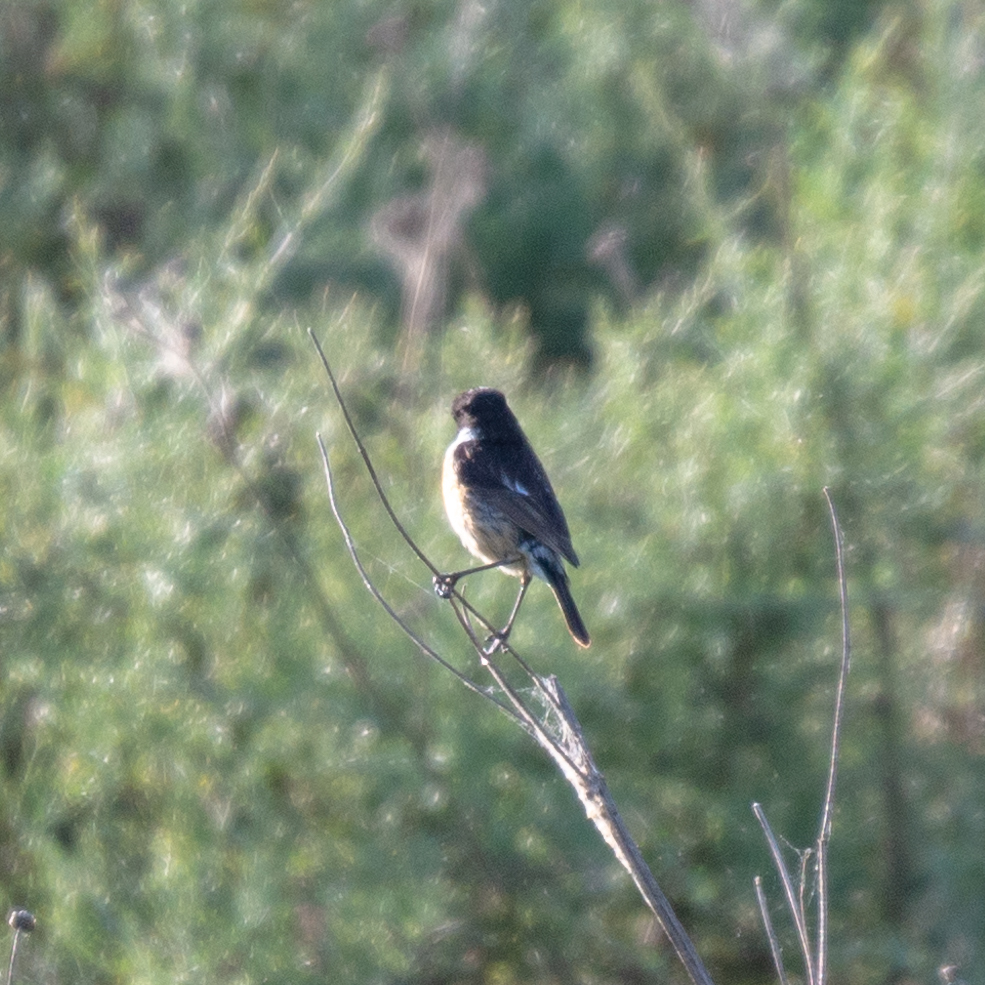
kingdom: Animalia
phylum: Chordata
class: Aves
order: Passeriformes
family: Muscicapidae
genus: Saxicola
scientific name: Saxicola rubicola
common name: European stonechat
